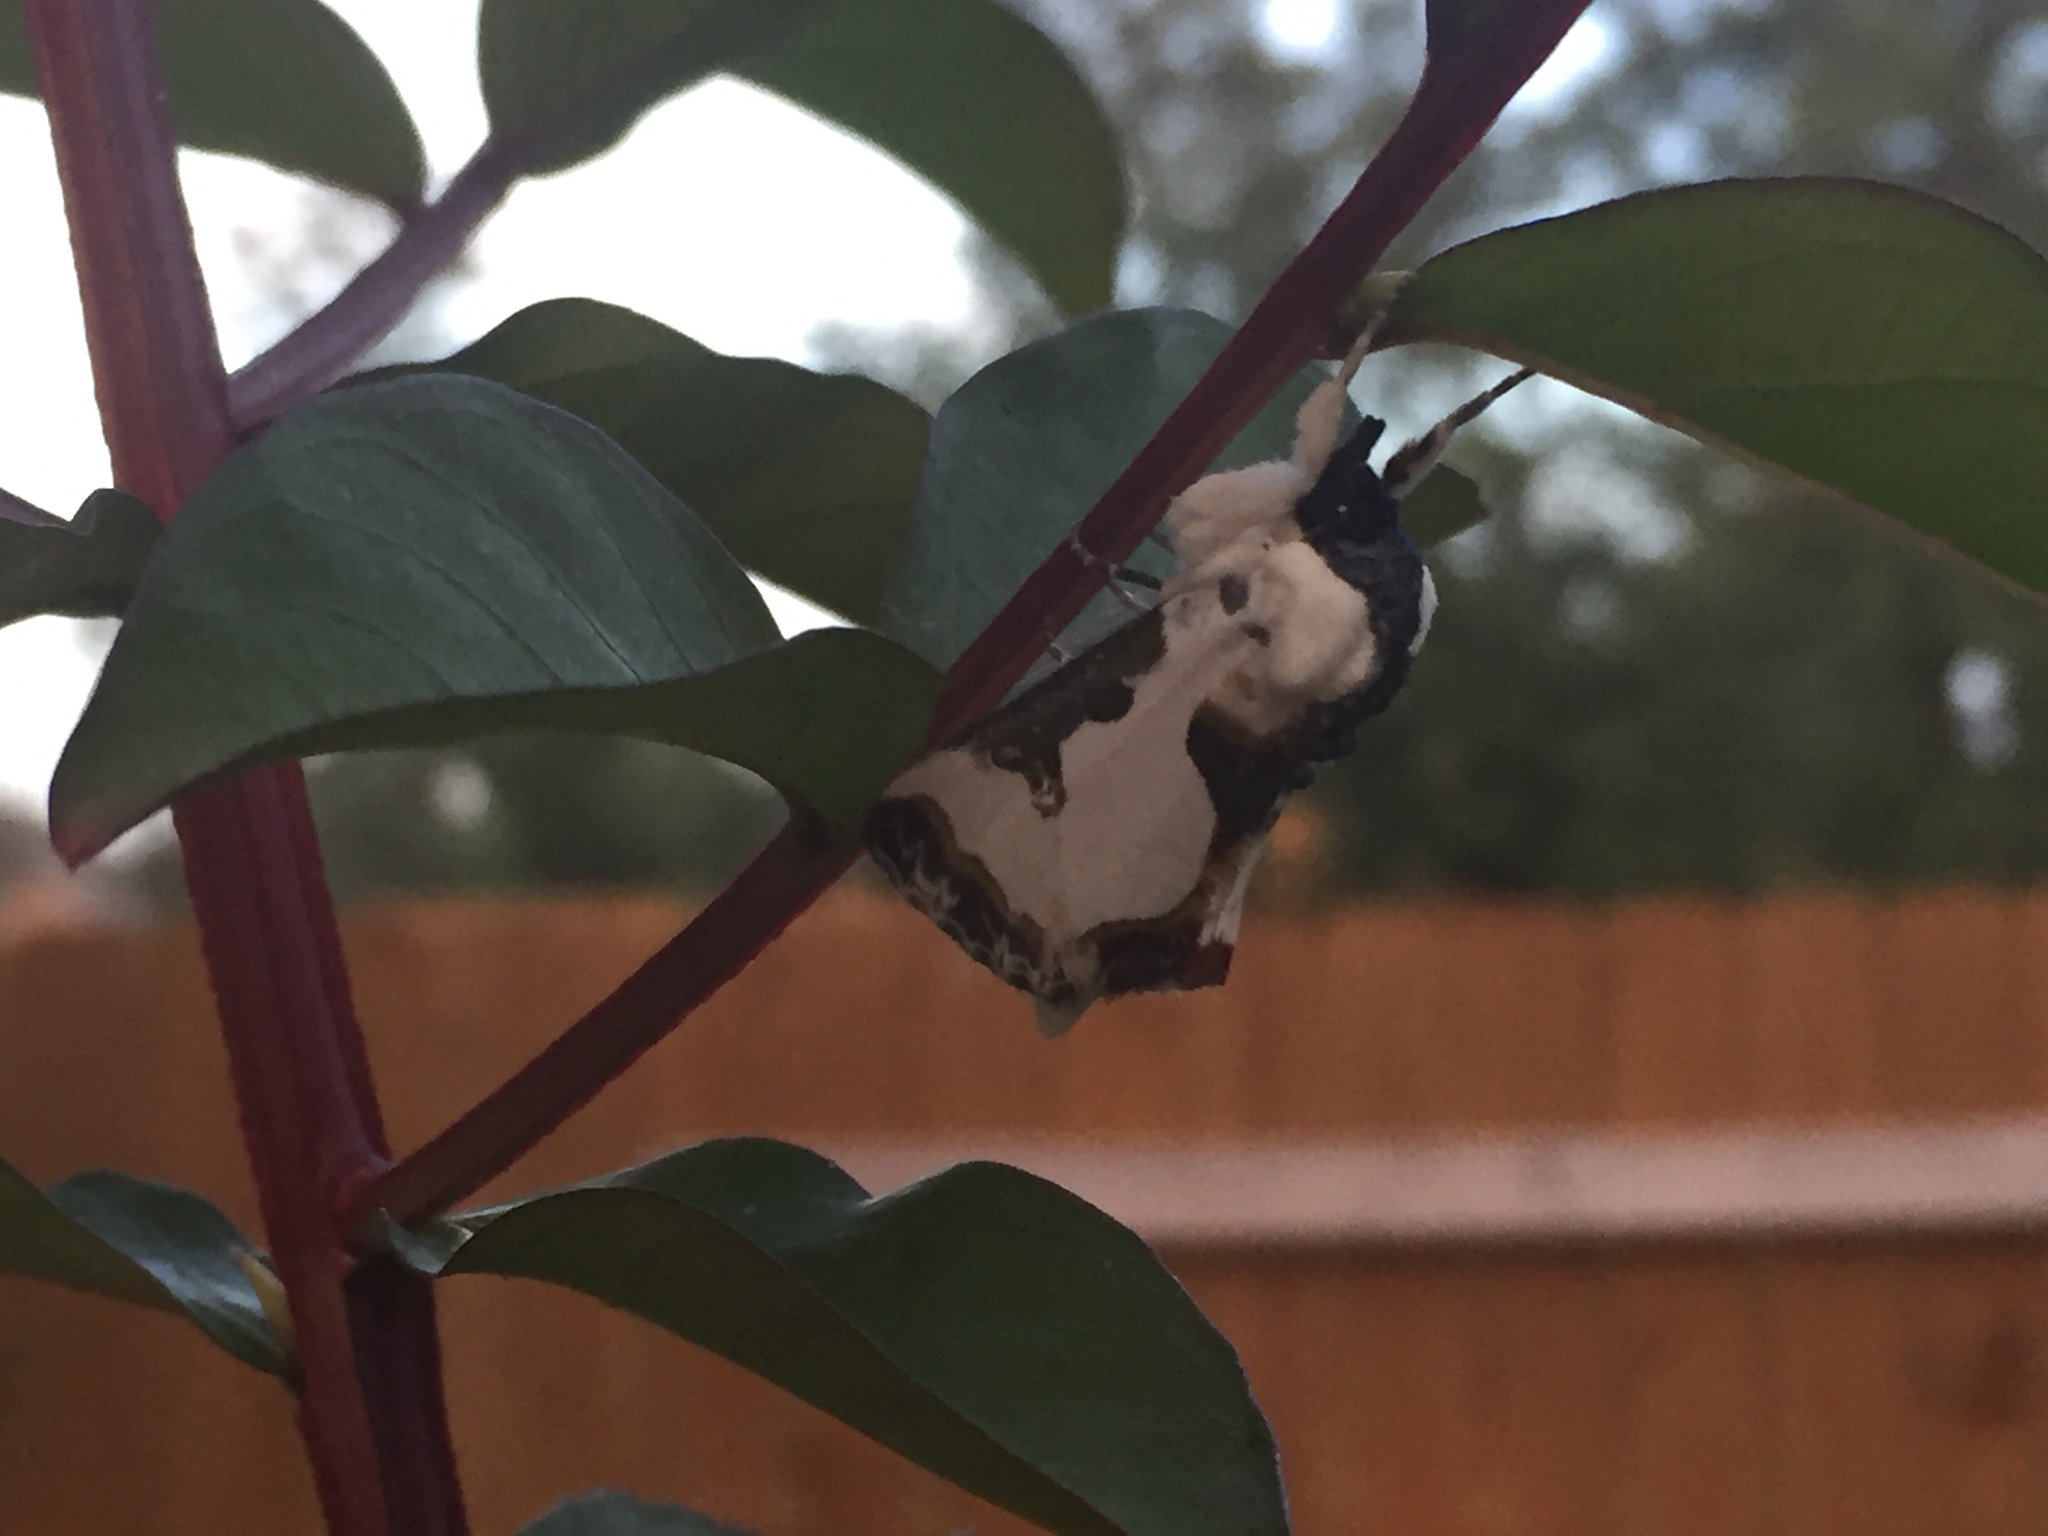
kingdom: Animalia
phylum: Arthropoda
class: Insecta
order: Lepidoptera
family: Noctuidae
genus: Xerociris
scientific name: Xerociris wilsonii
